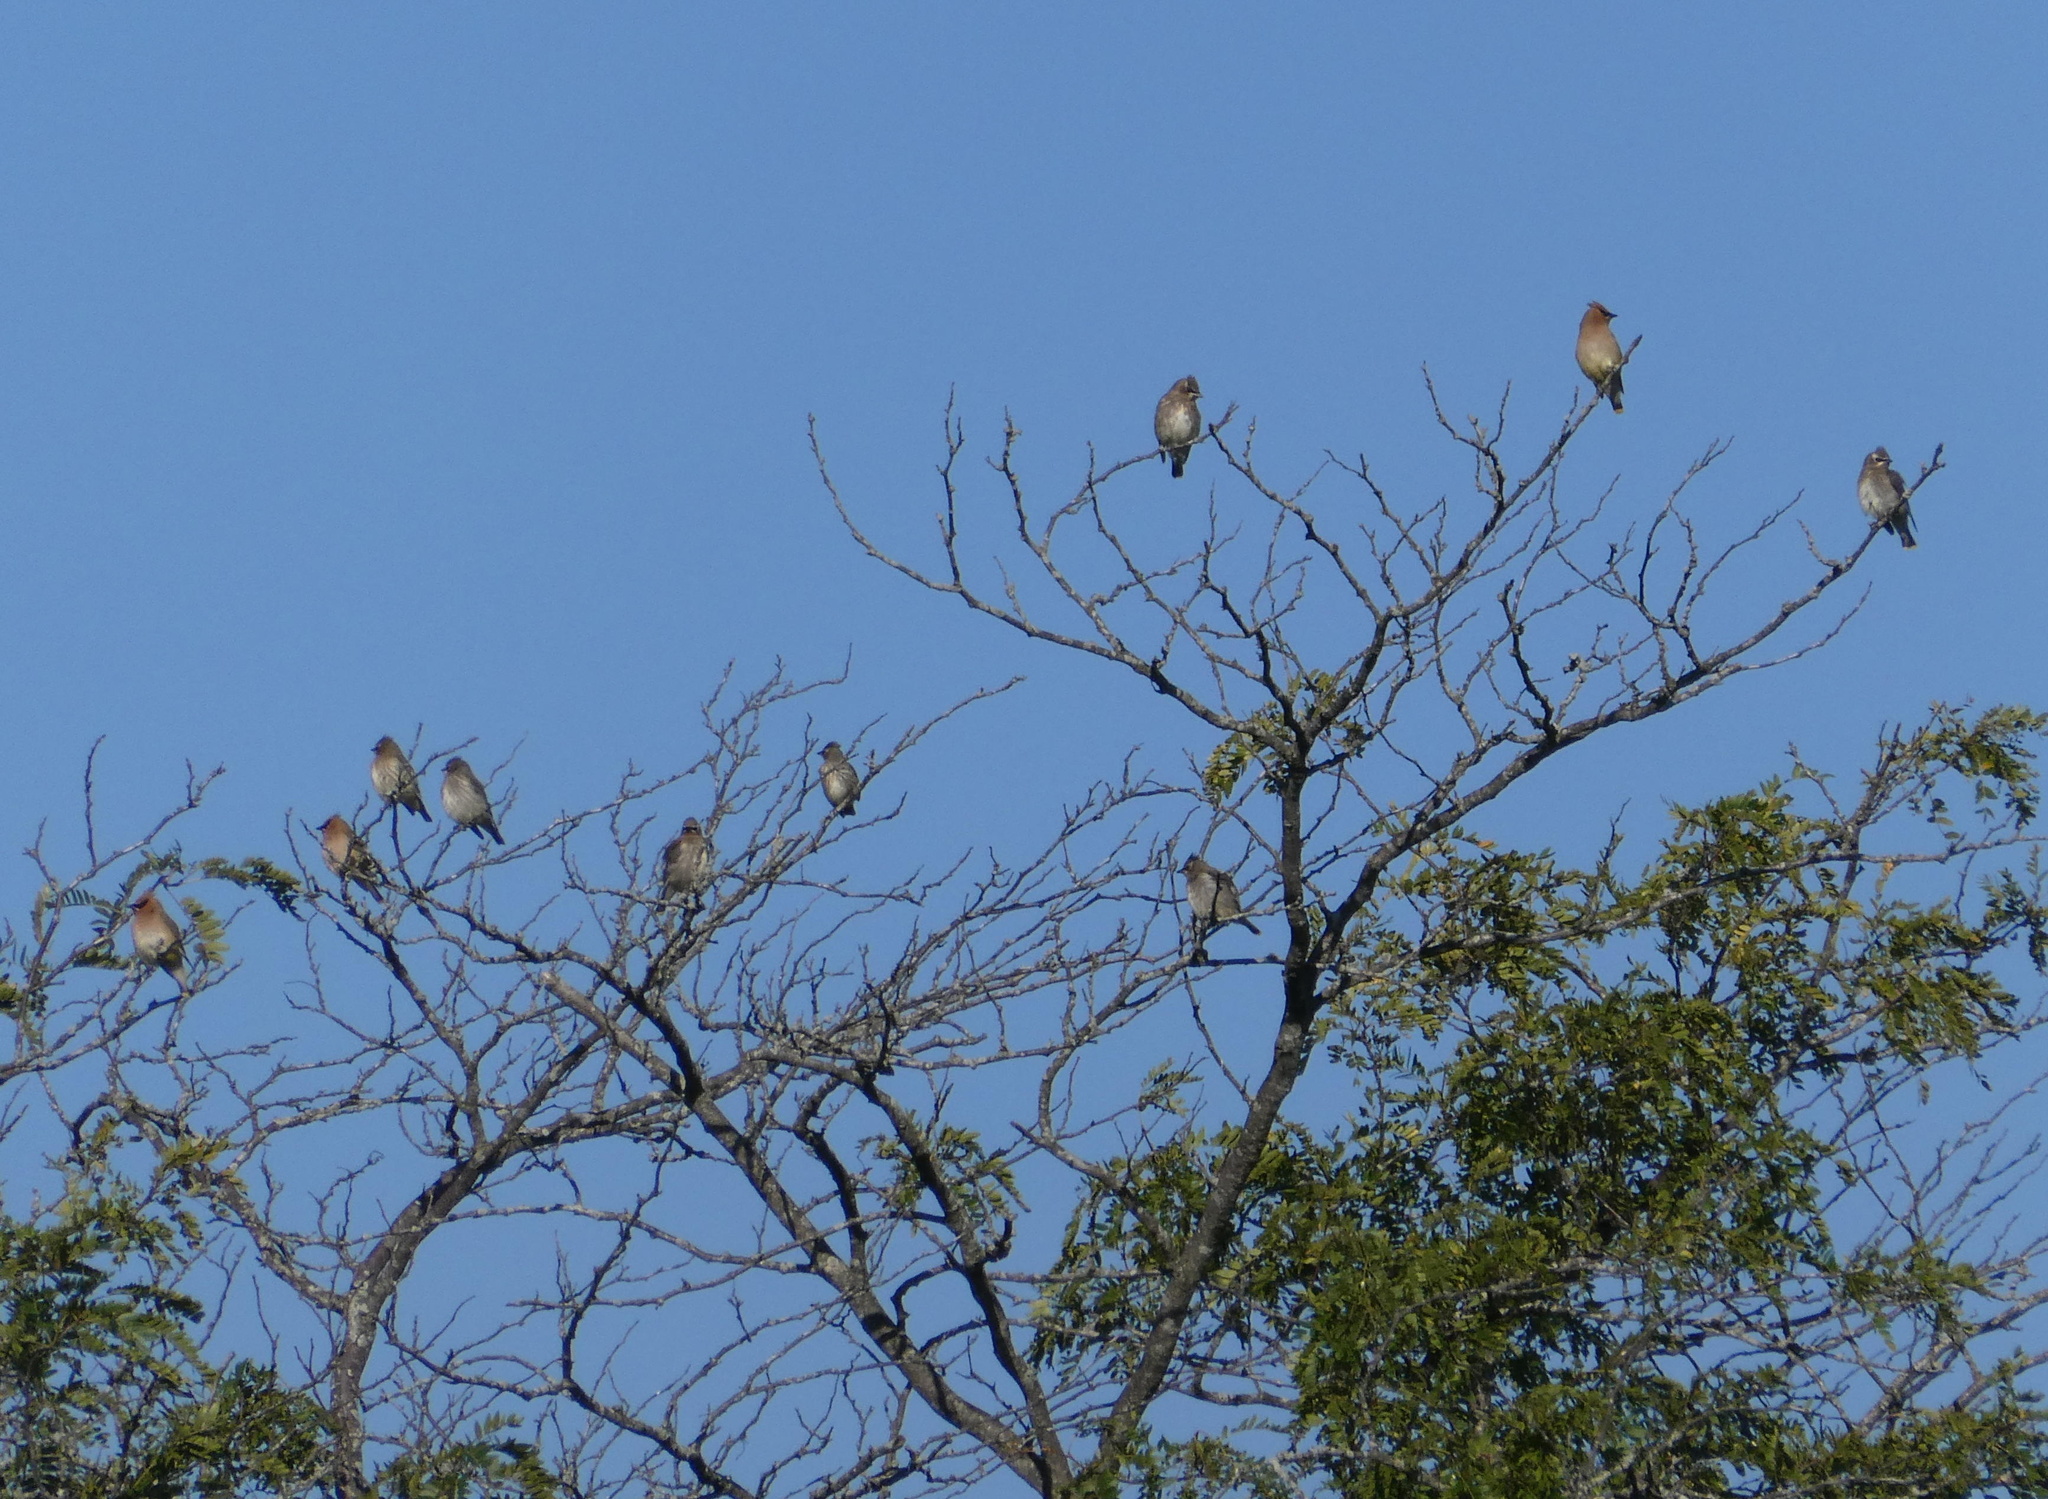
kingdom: Animalia
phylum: Chordata
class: Aves
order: Passeriformes
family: Bombycillidae
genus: Bombycilla
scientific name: Bombycilla cedrorum
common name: Cedar waxwing
